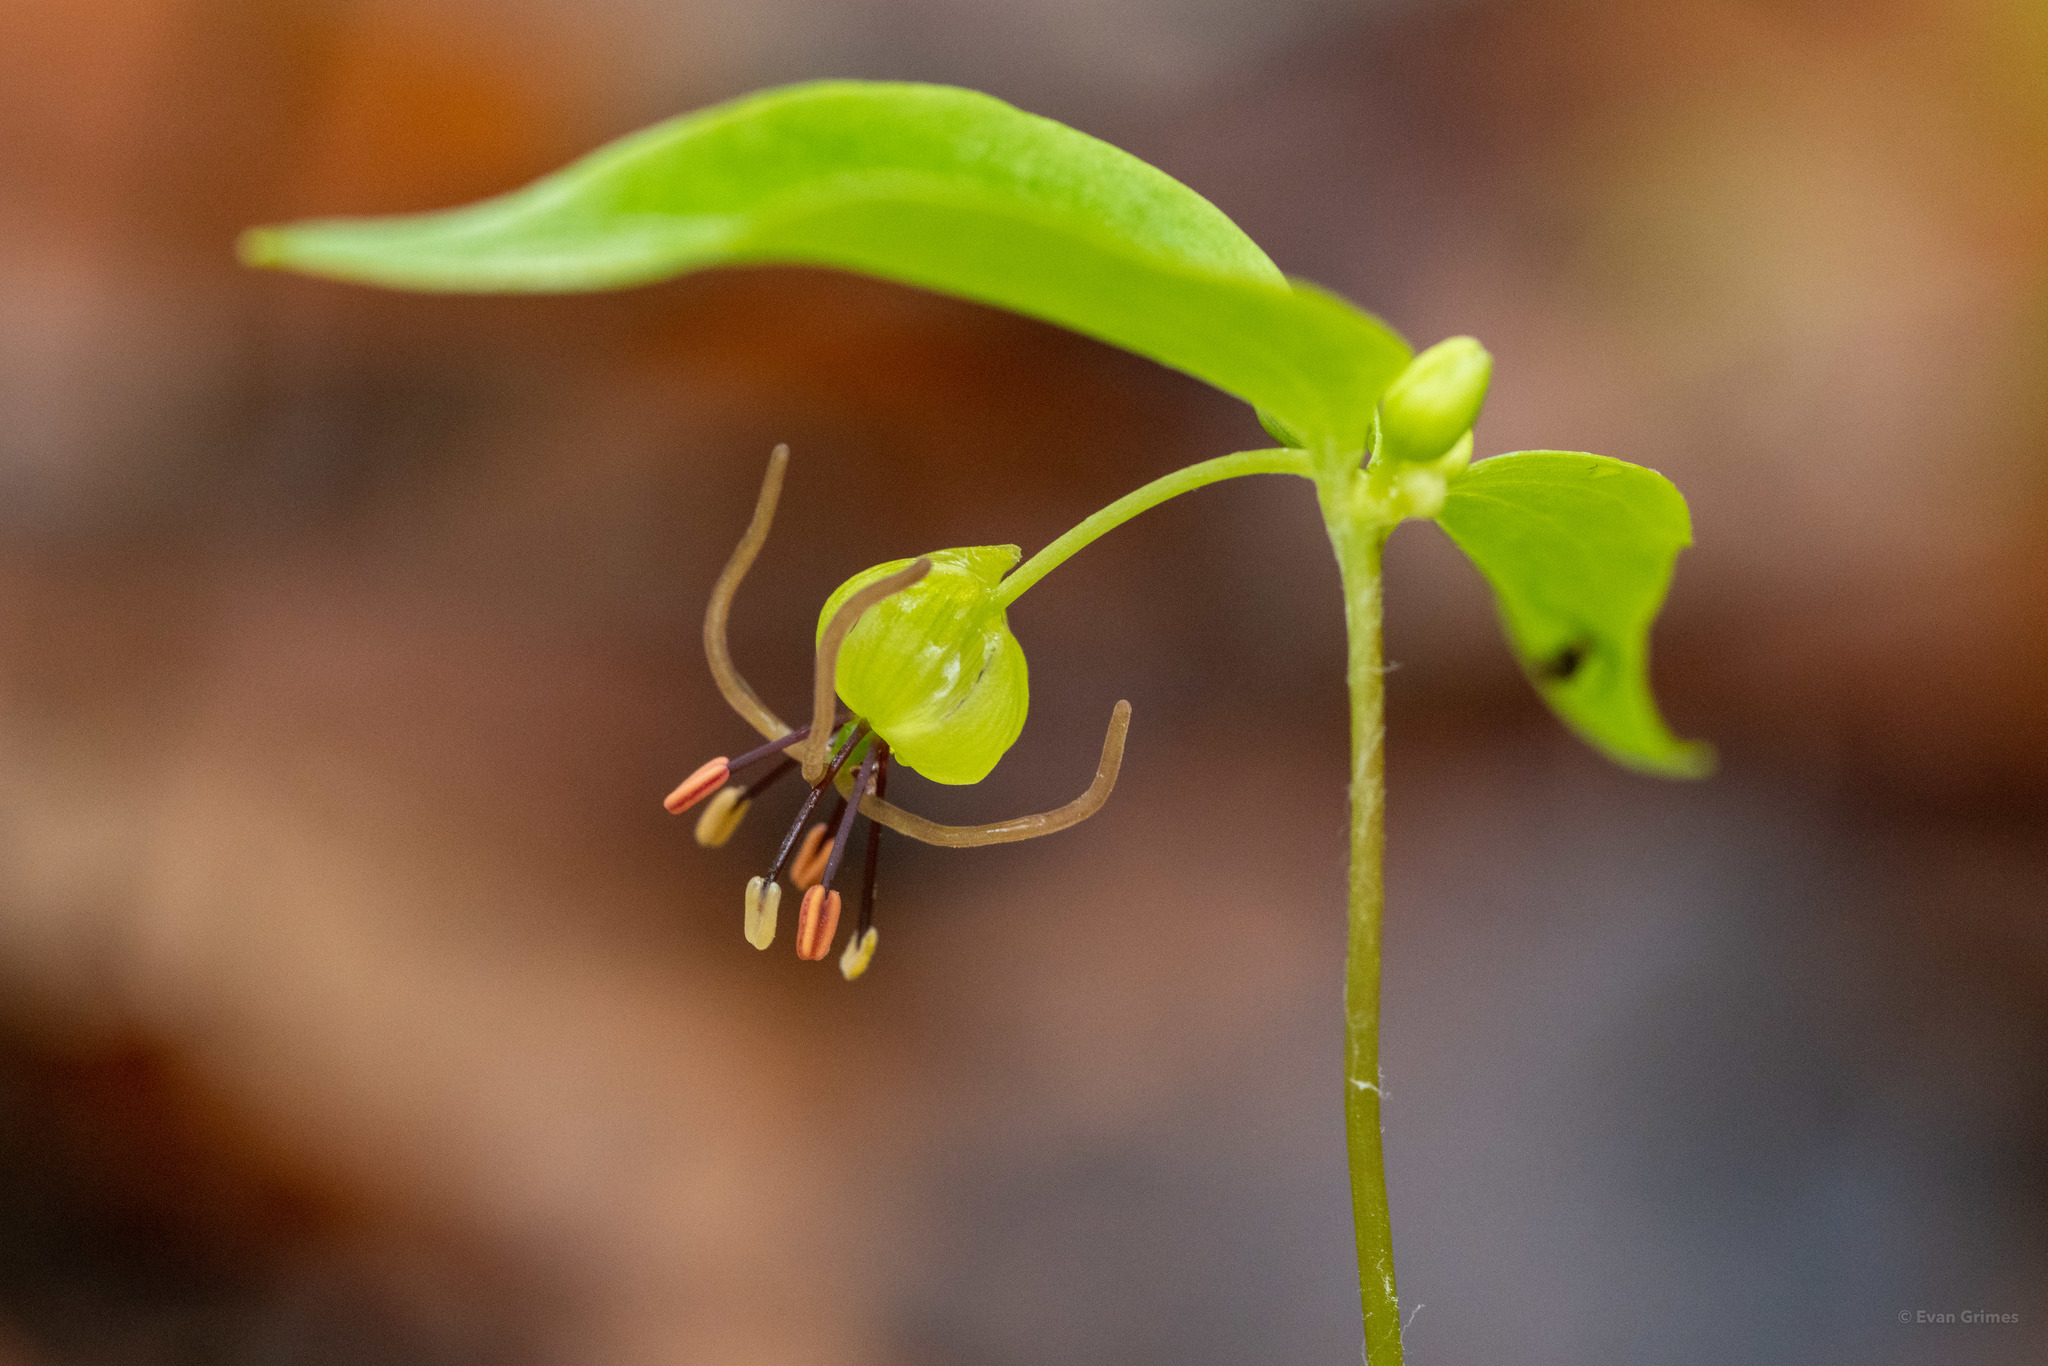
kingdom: Plantae
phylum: Tracheophyta
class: Liliopsida
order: Liliales
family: Liliaceae
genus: Medeola
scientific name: Medeola virginiana
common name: Indian cucumber-root
